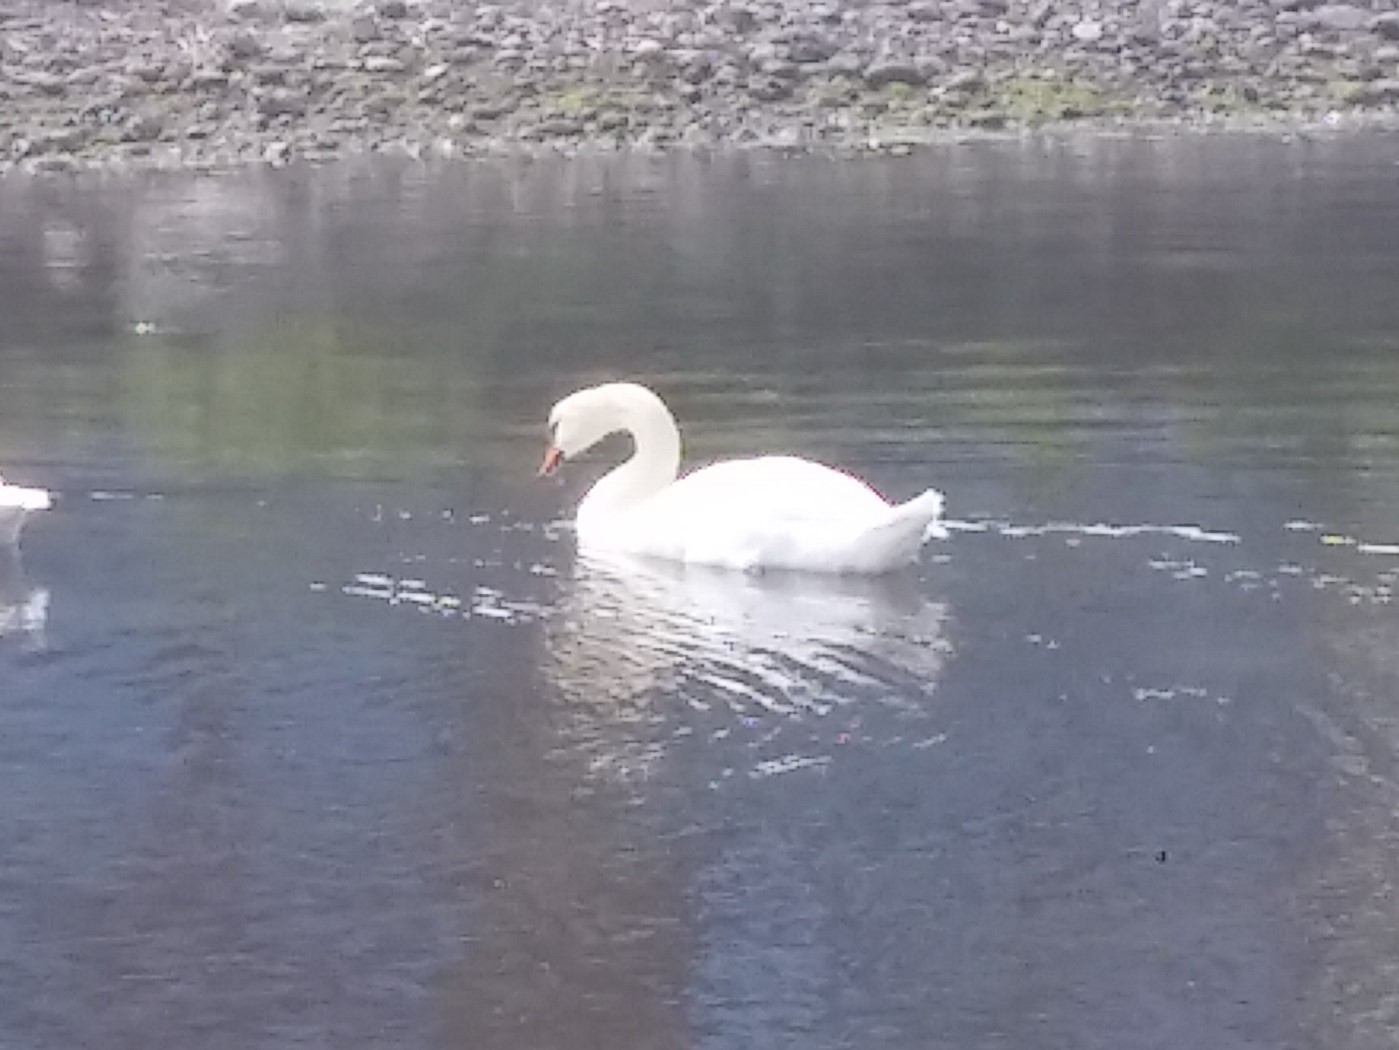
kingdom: Animalia
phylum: Chordata
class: Aves
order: Anseriformes
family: Anatidae
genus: Cygnus
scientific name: Cygnus olor
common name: Mute swan
